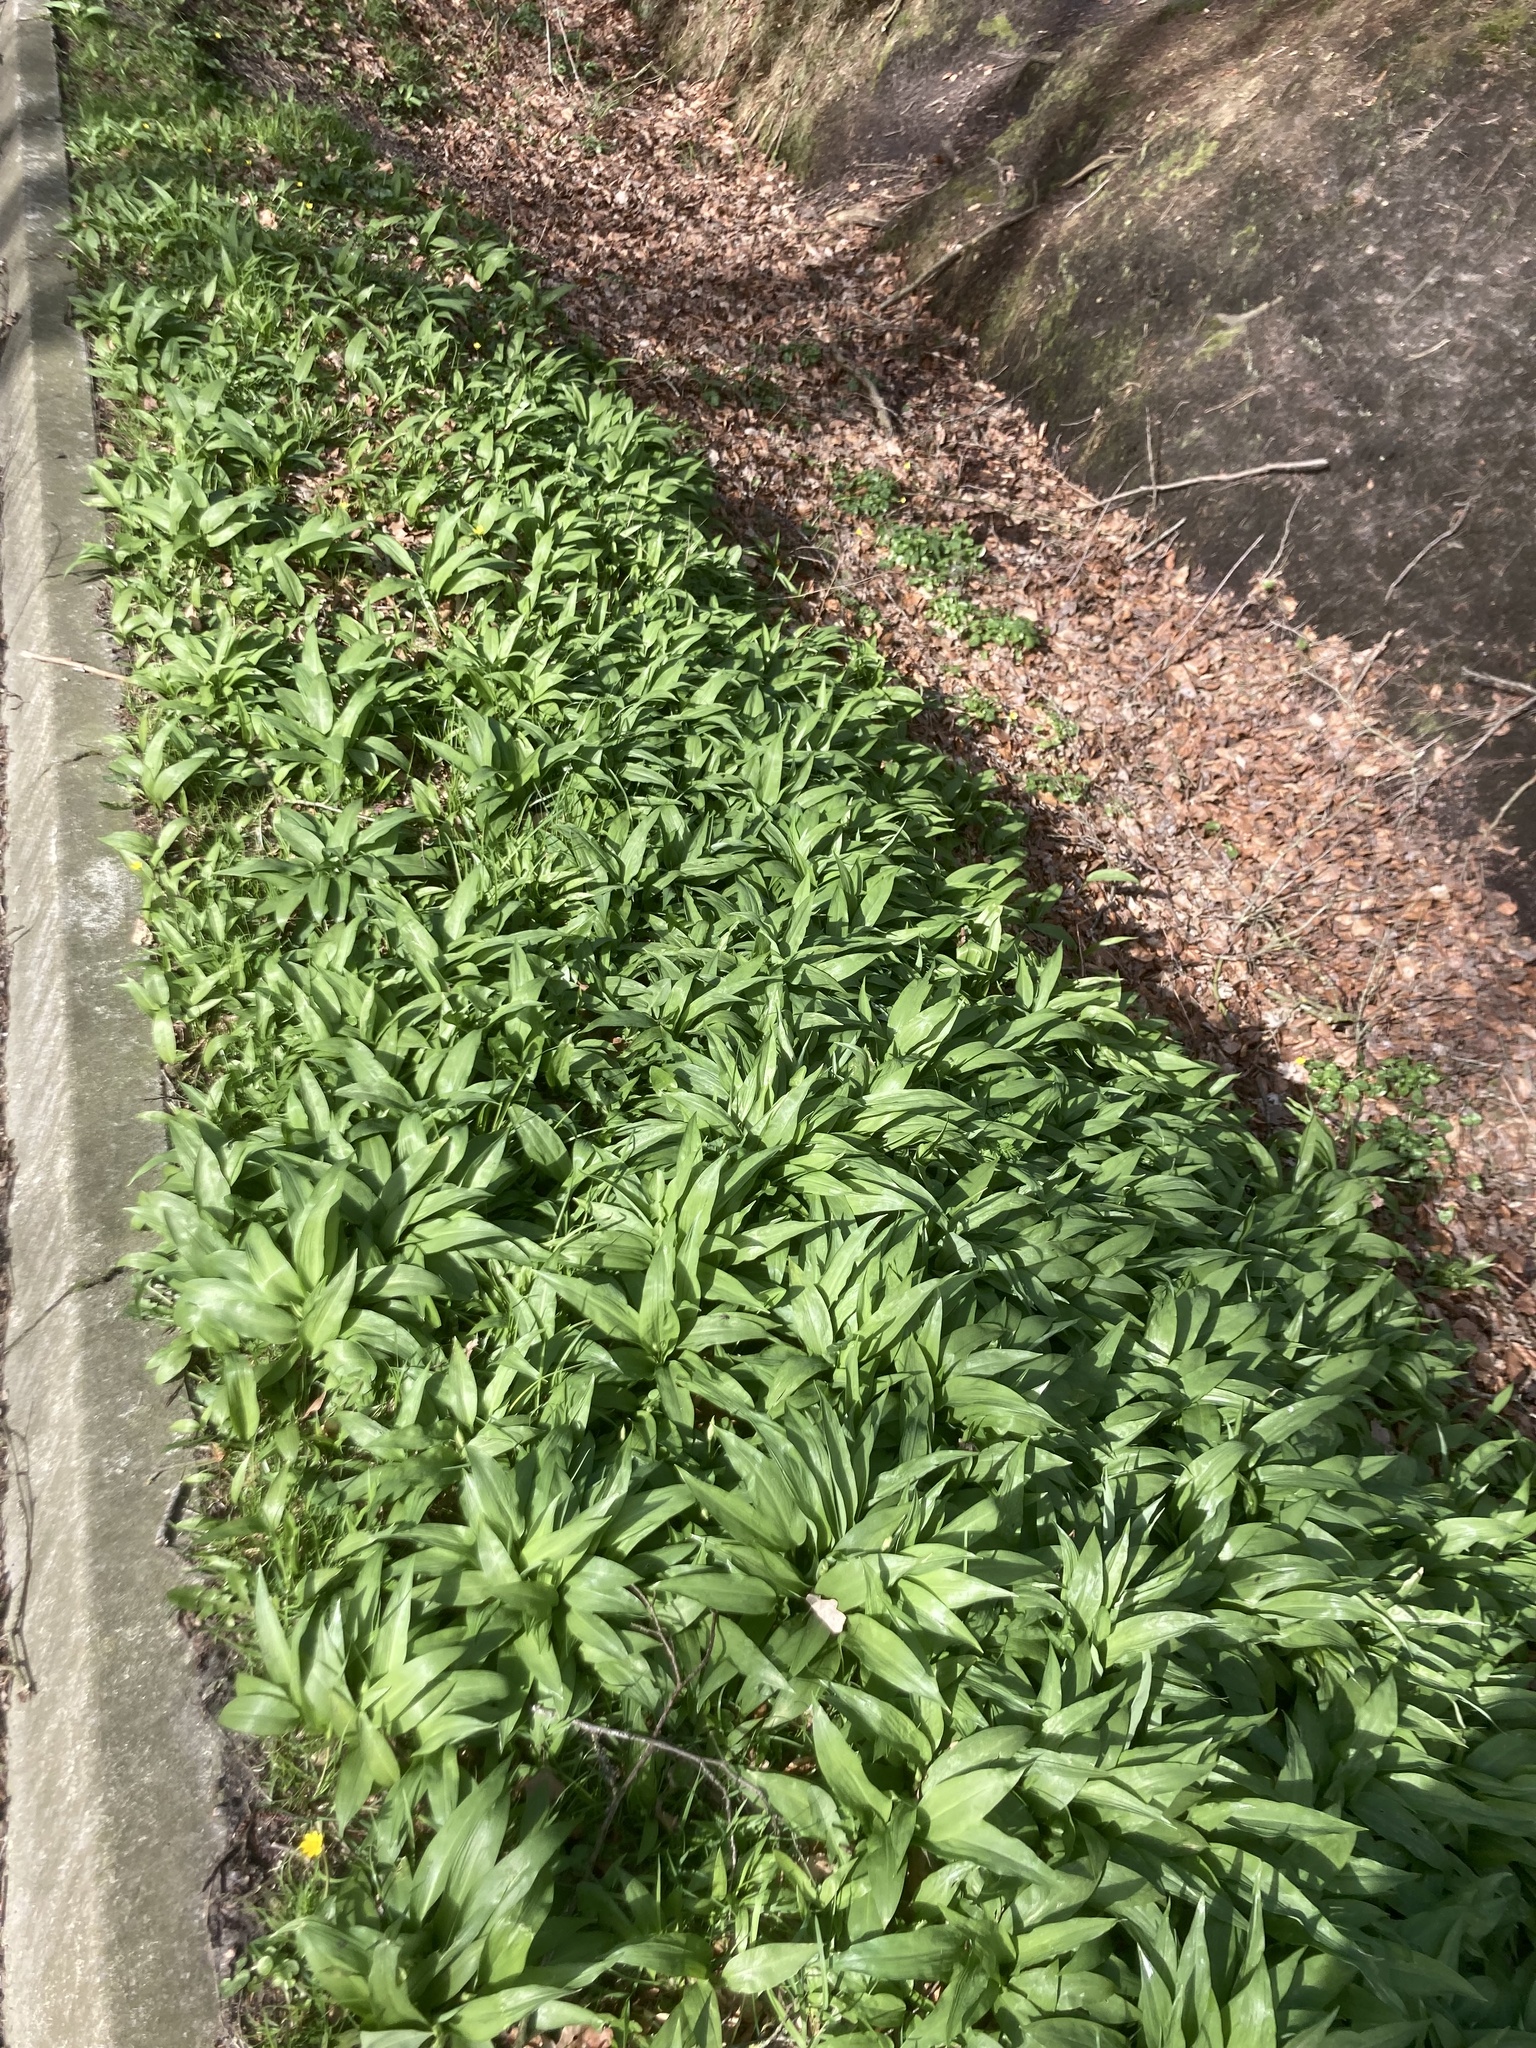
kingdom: Plantae
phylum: Tracheophyta
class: Liliopsida
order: Asparagales
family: Amaryllidaceae
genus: Allium
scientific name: Allium ursinum
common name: Ramsons
